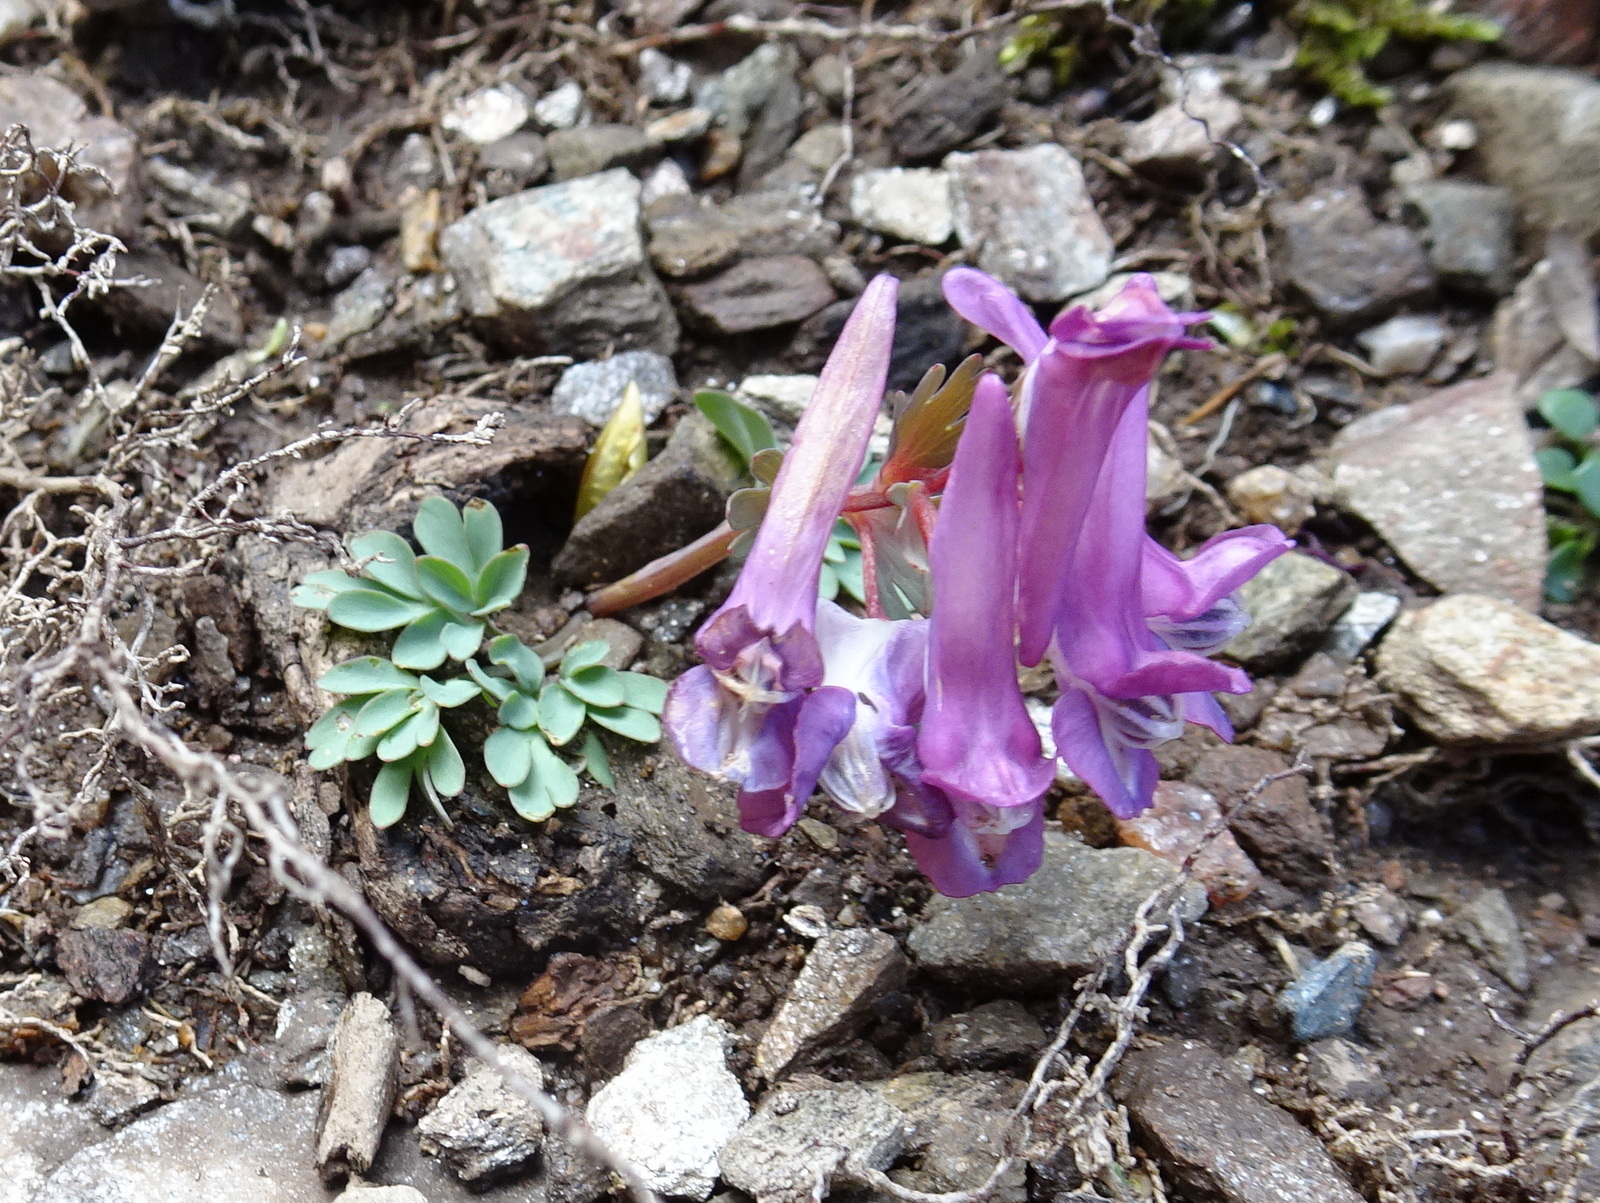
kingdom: Plantae
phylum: Tracheophyta
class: Magnoliopsida
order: Ranunculales
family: Papaveraceae
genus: Corydalis
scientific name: Corydalis solida
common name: Bird-in-a-bush
